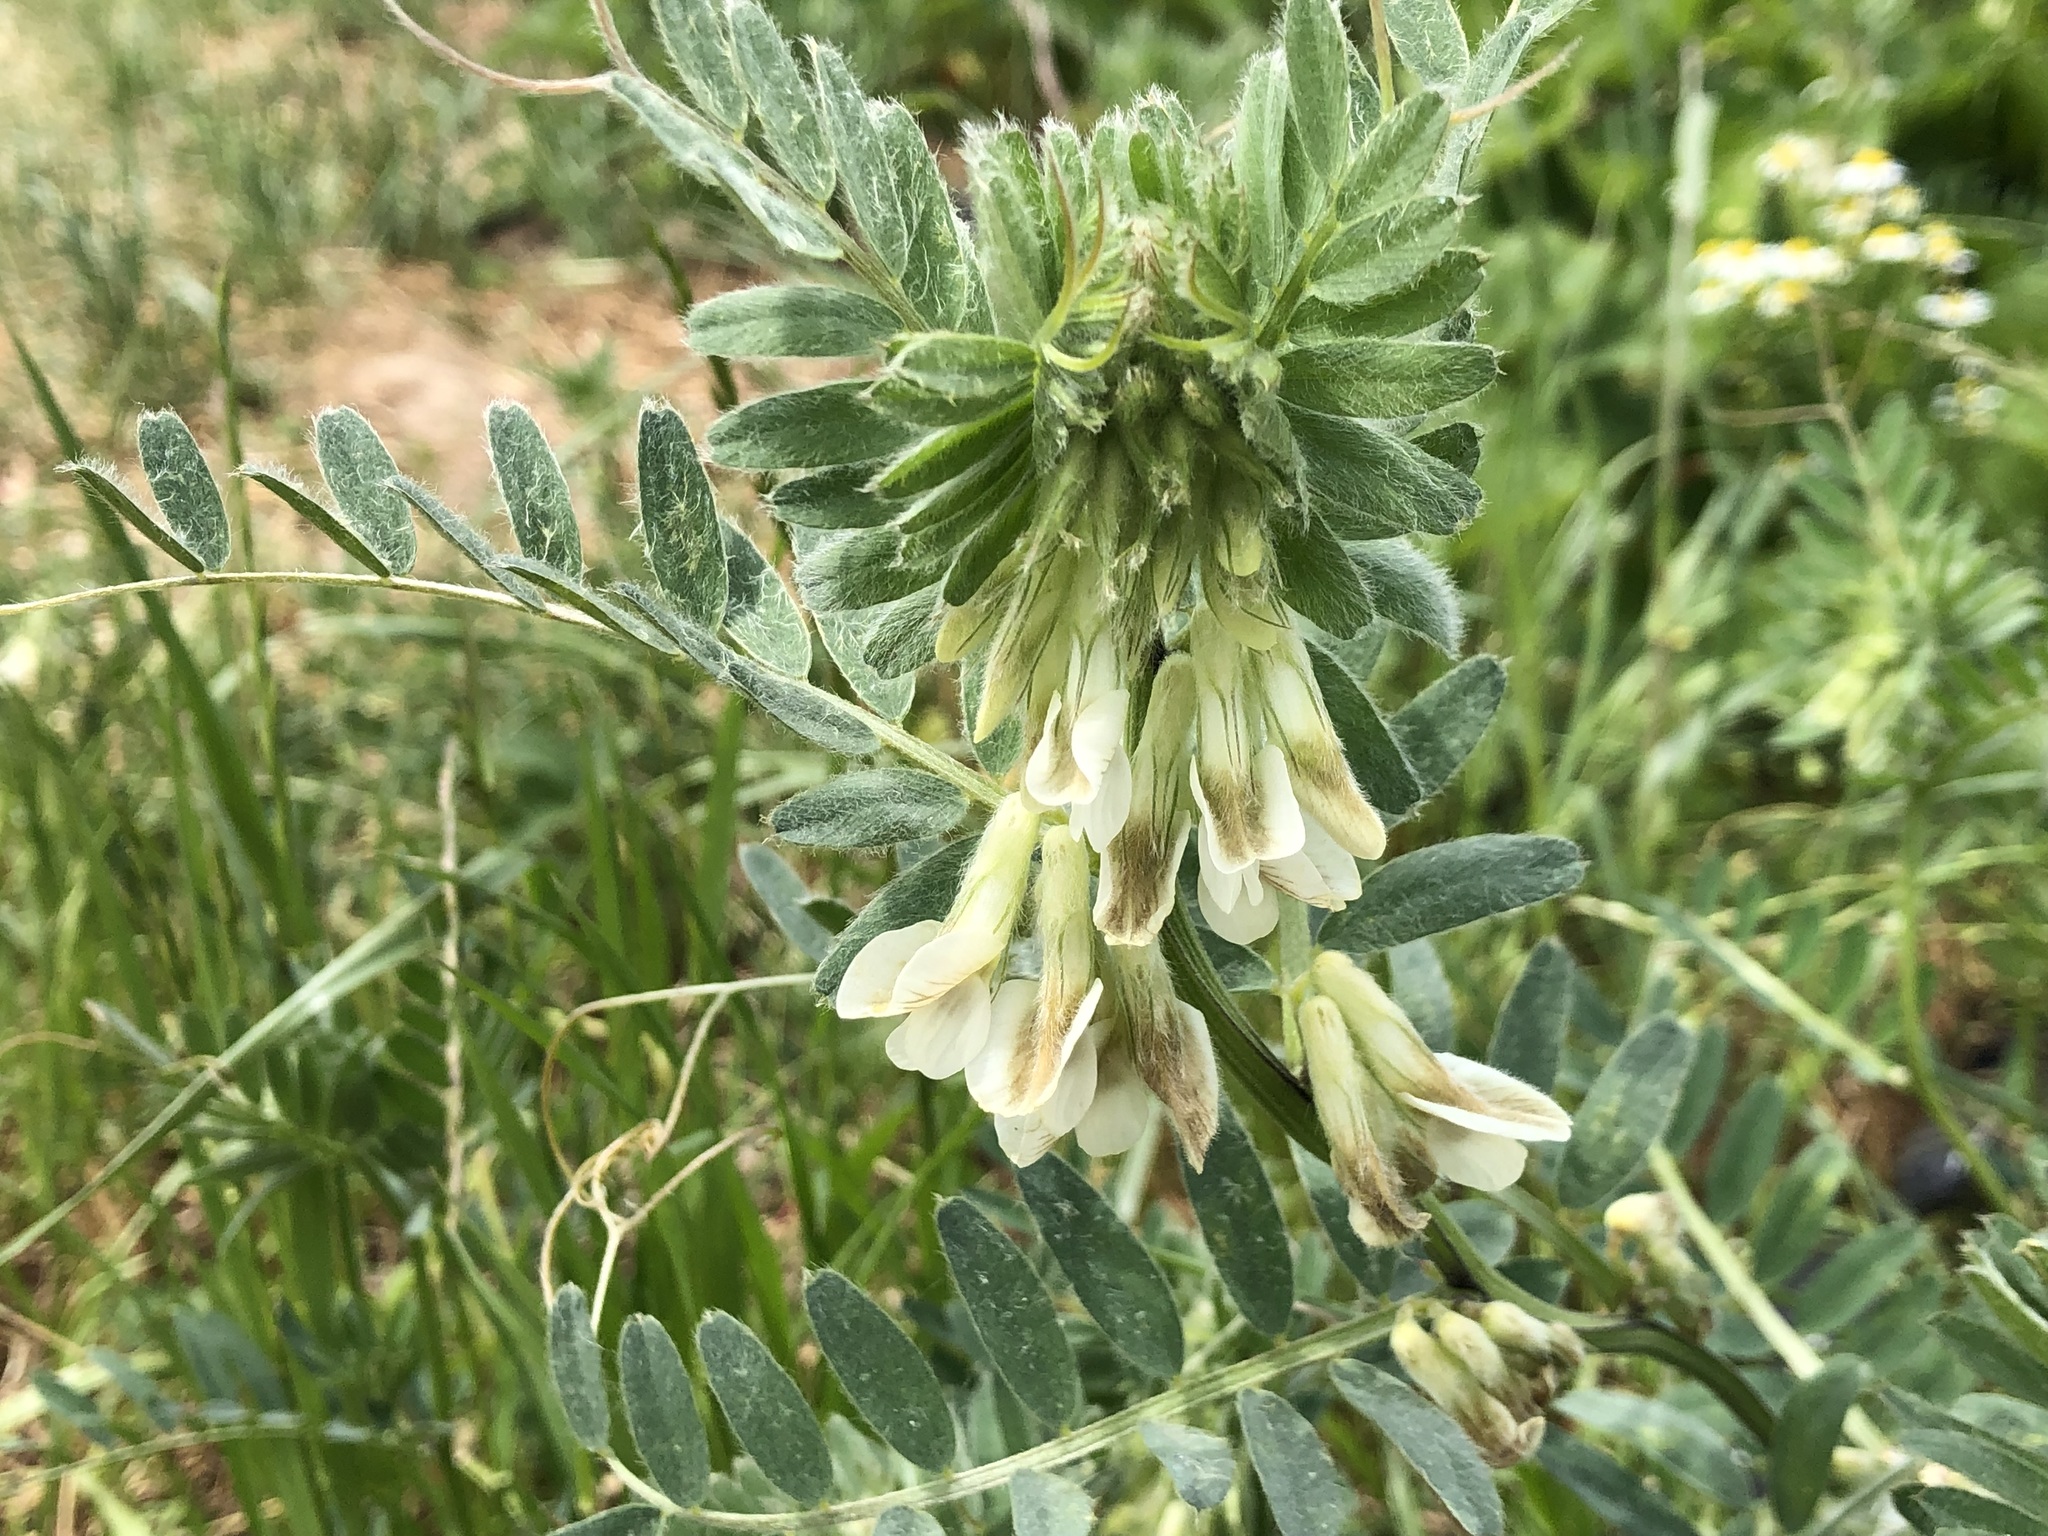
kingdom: Plantae
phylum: Tracheophyta
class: Magnoliopsida
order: Fabales
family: Fabaceae
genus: Vicia
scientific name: Vicia pannonica
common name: Hungarian vetch
